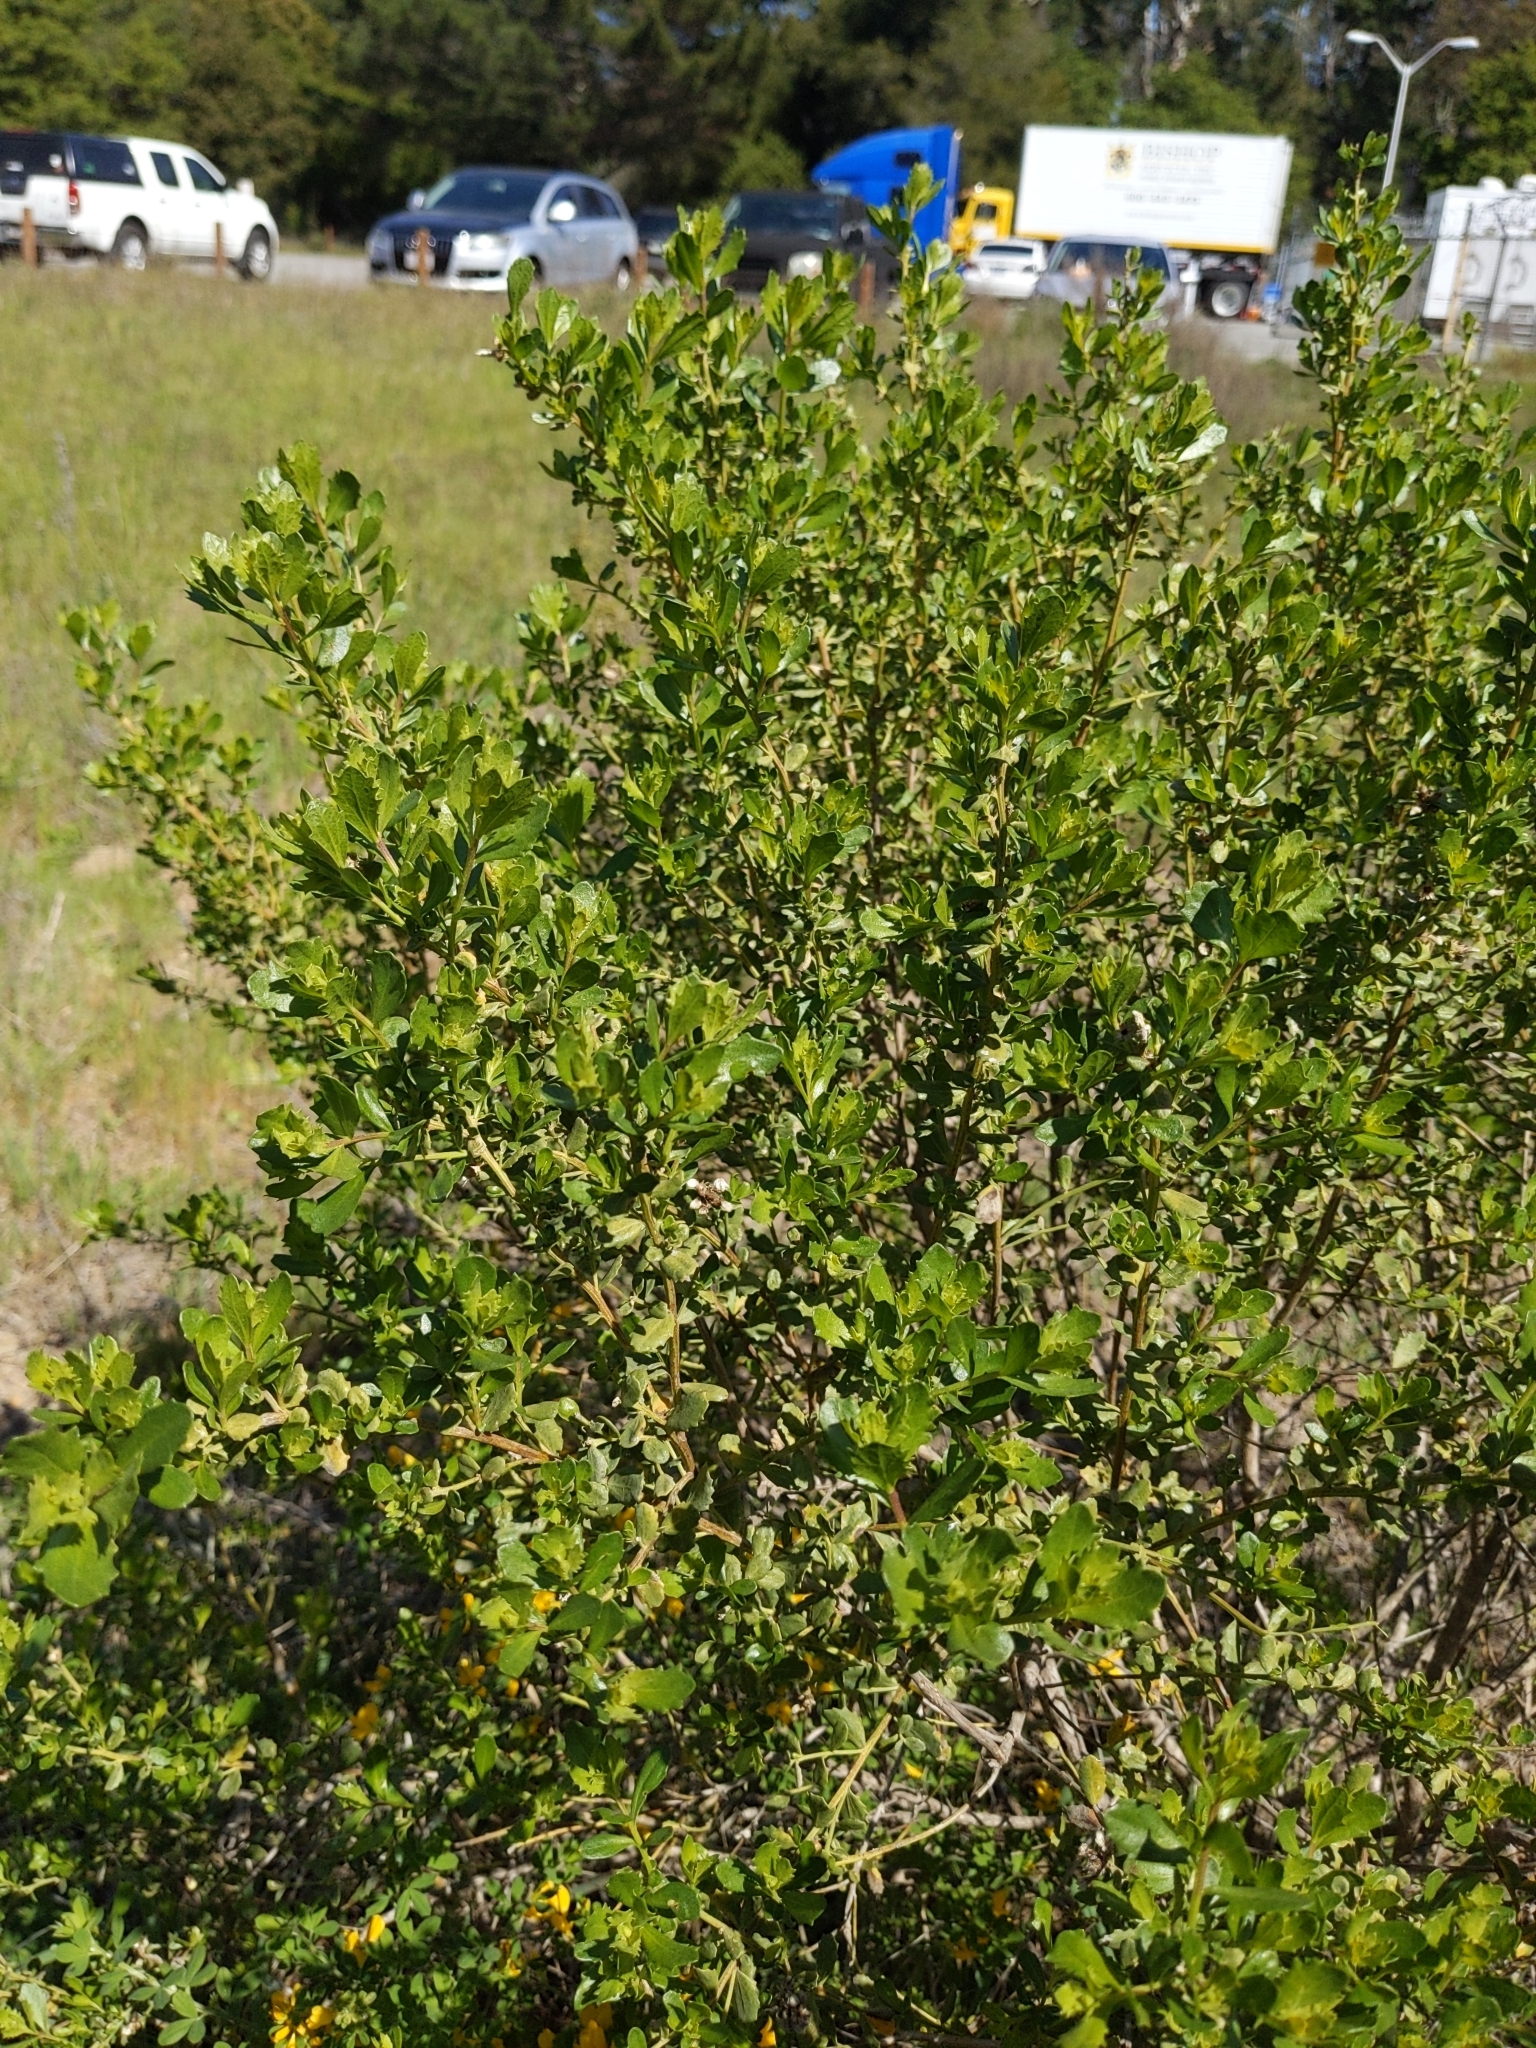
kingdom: Plantae
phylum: Tracheophyta
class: Magnoliopsida
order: Asterales
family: Asteraceae
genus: Baccharis
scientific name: Baccharis pilularis
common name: Coyotebrush
